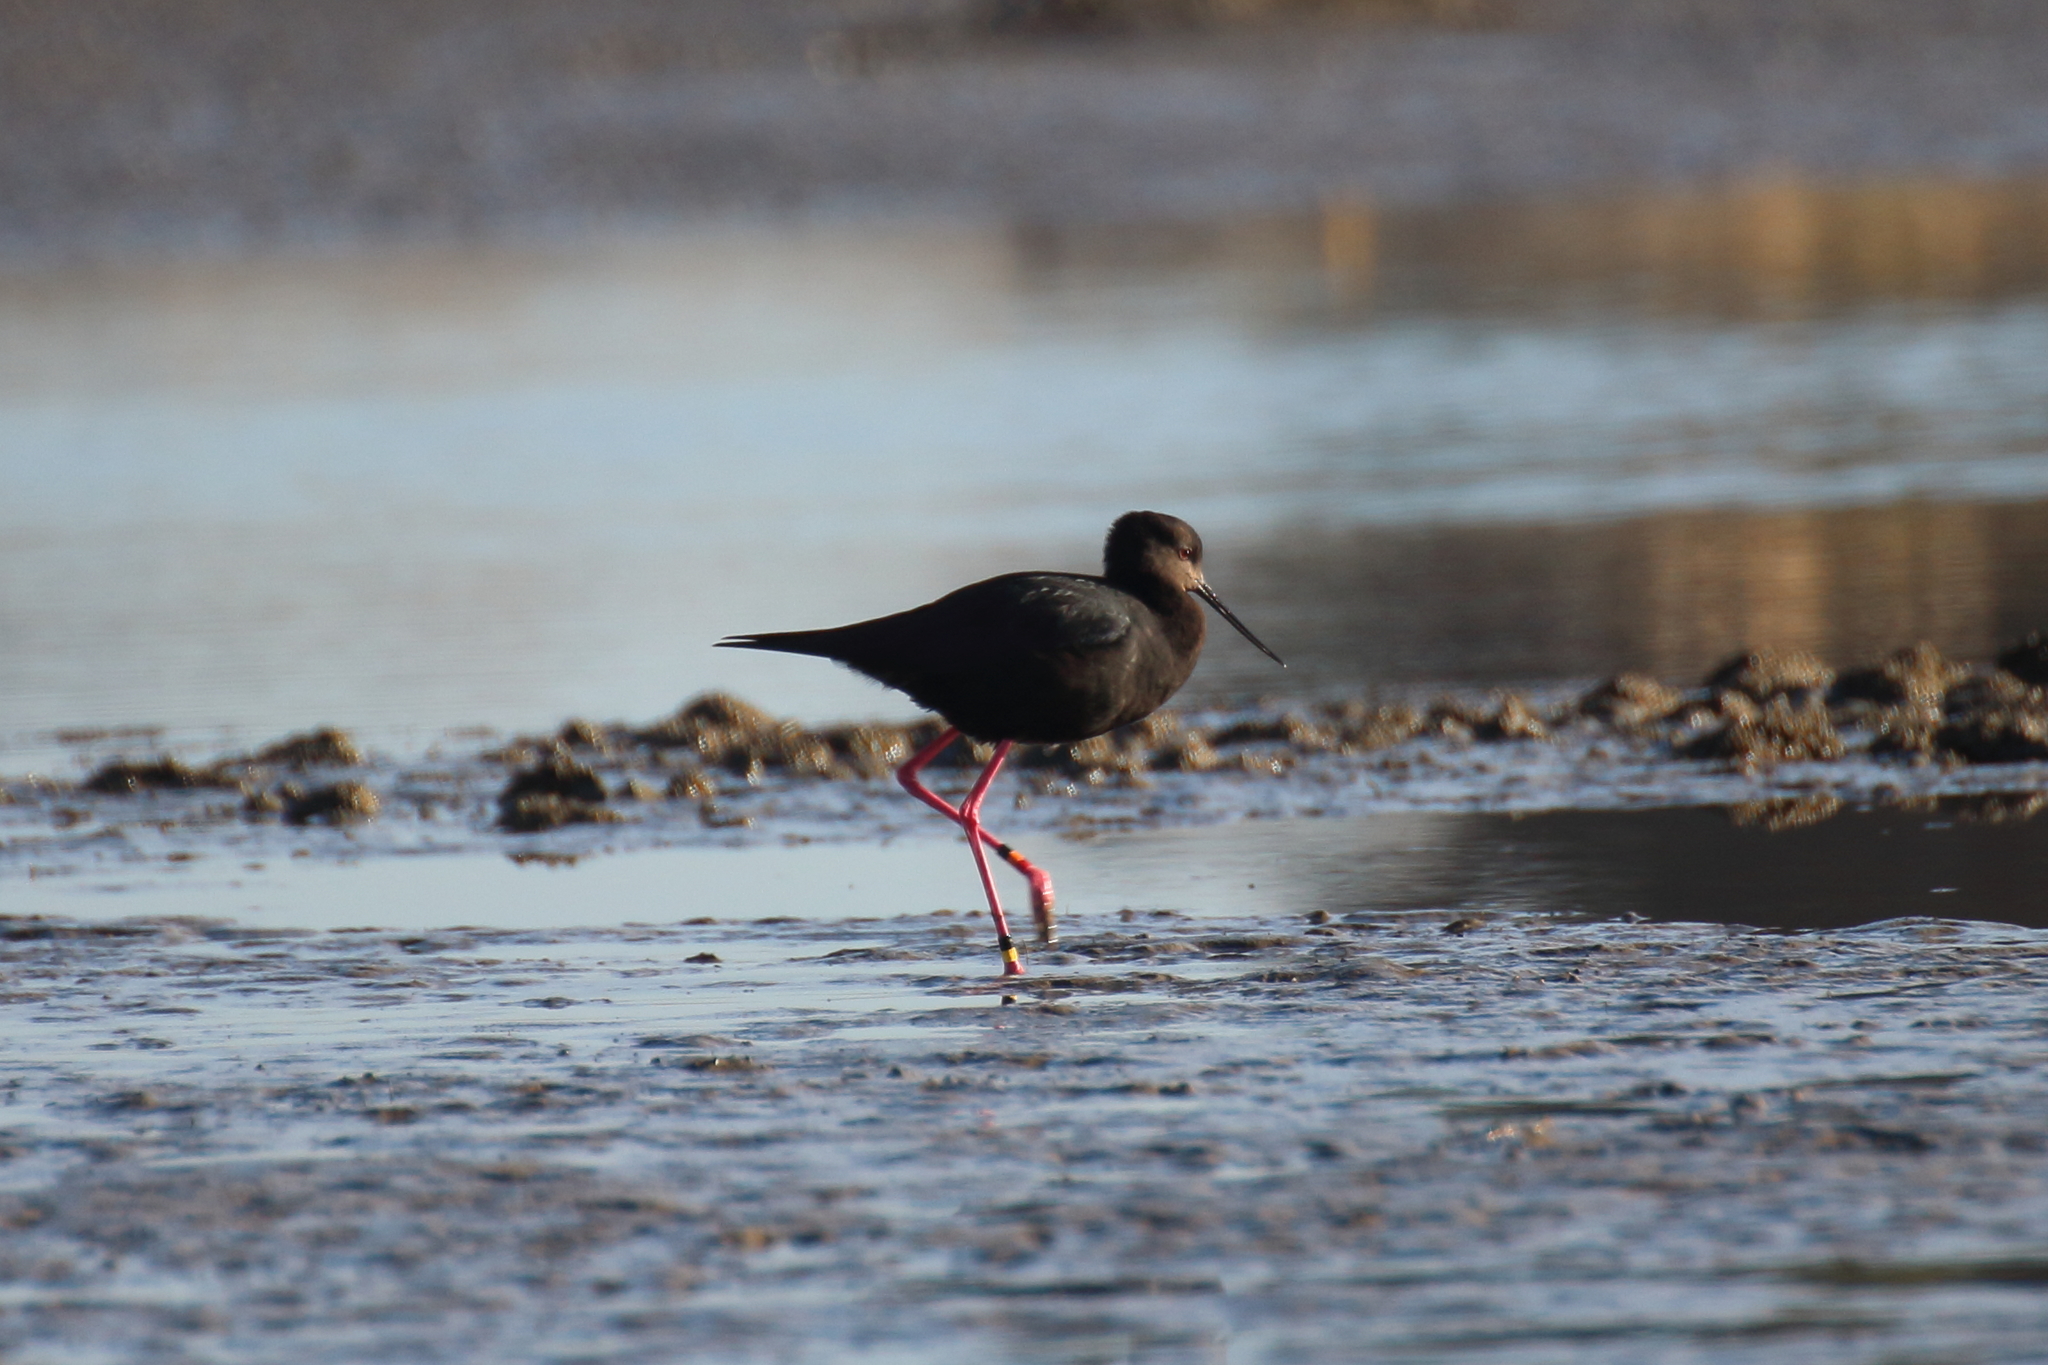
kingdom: Animalia
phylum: Chordata
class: Aves
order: Charadriiformes
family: Recurvirostridae
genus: Himantopus
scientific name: Himantopus novaezelandiae
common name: Black stilt
